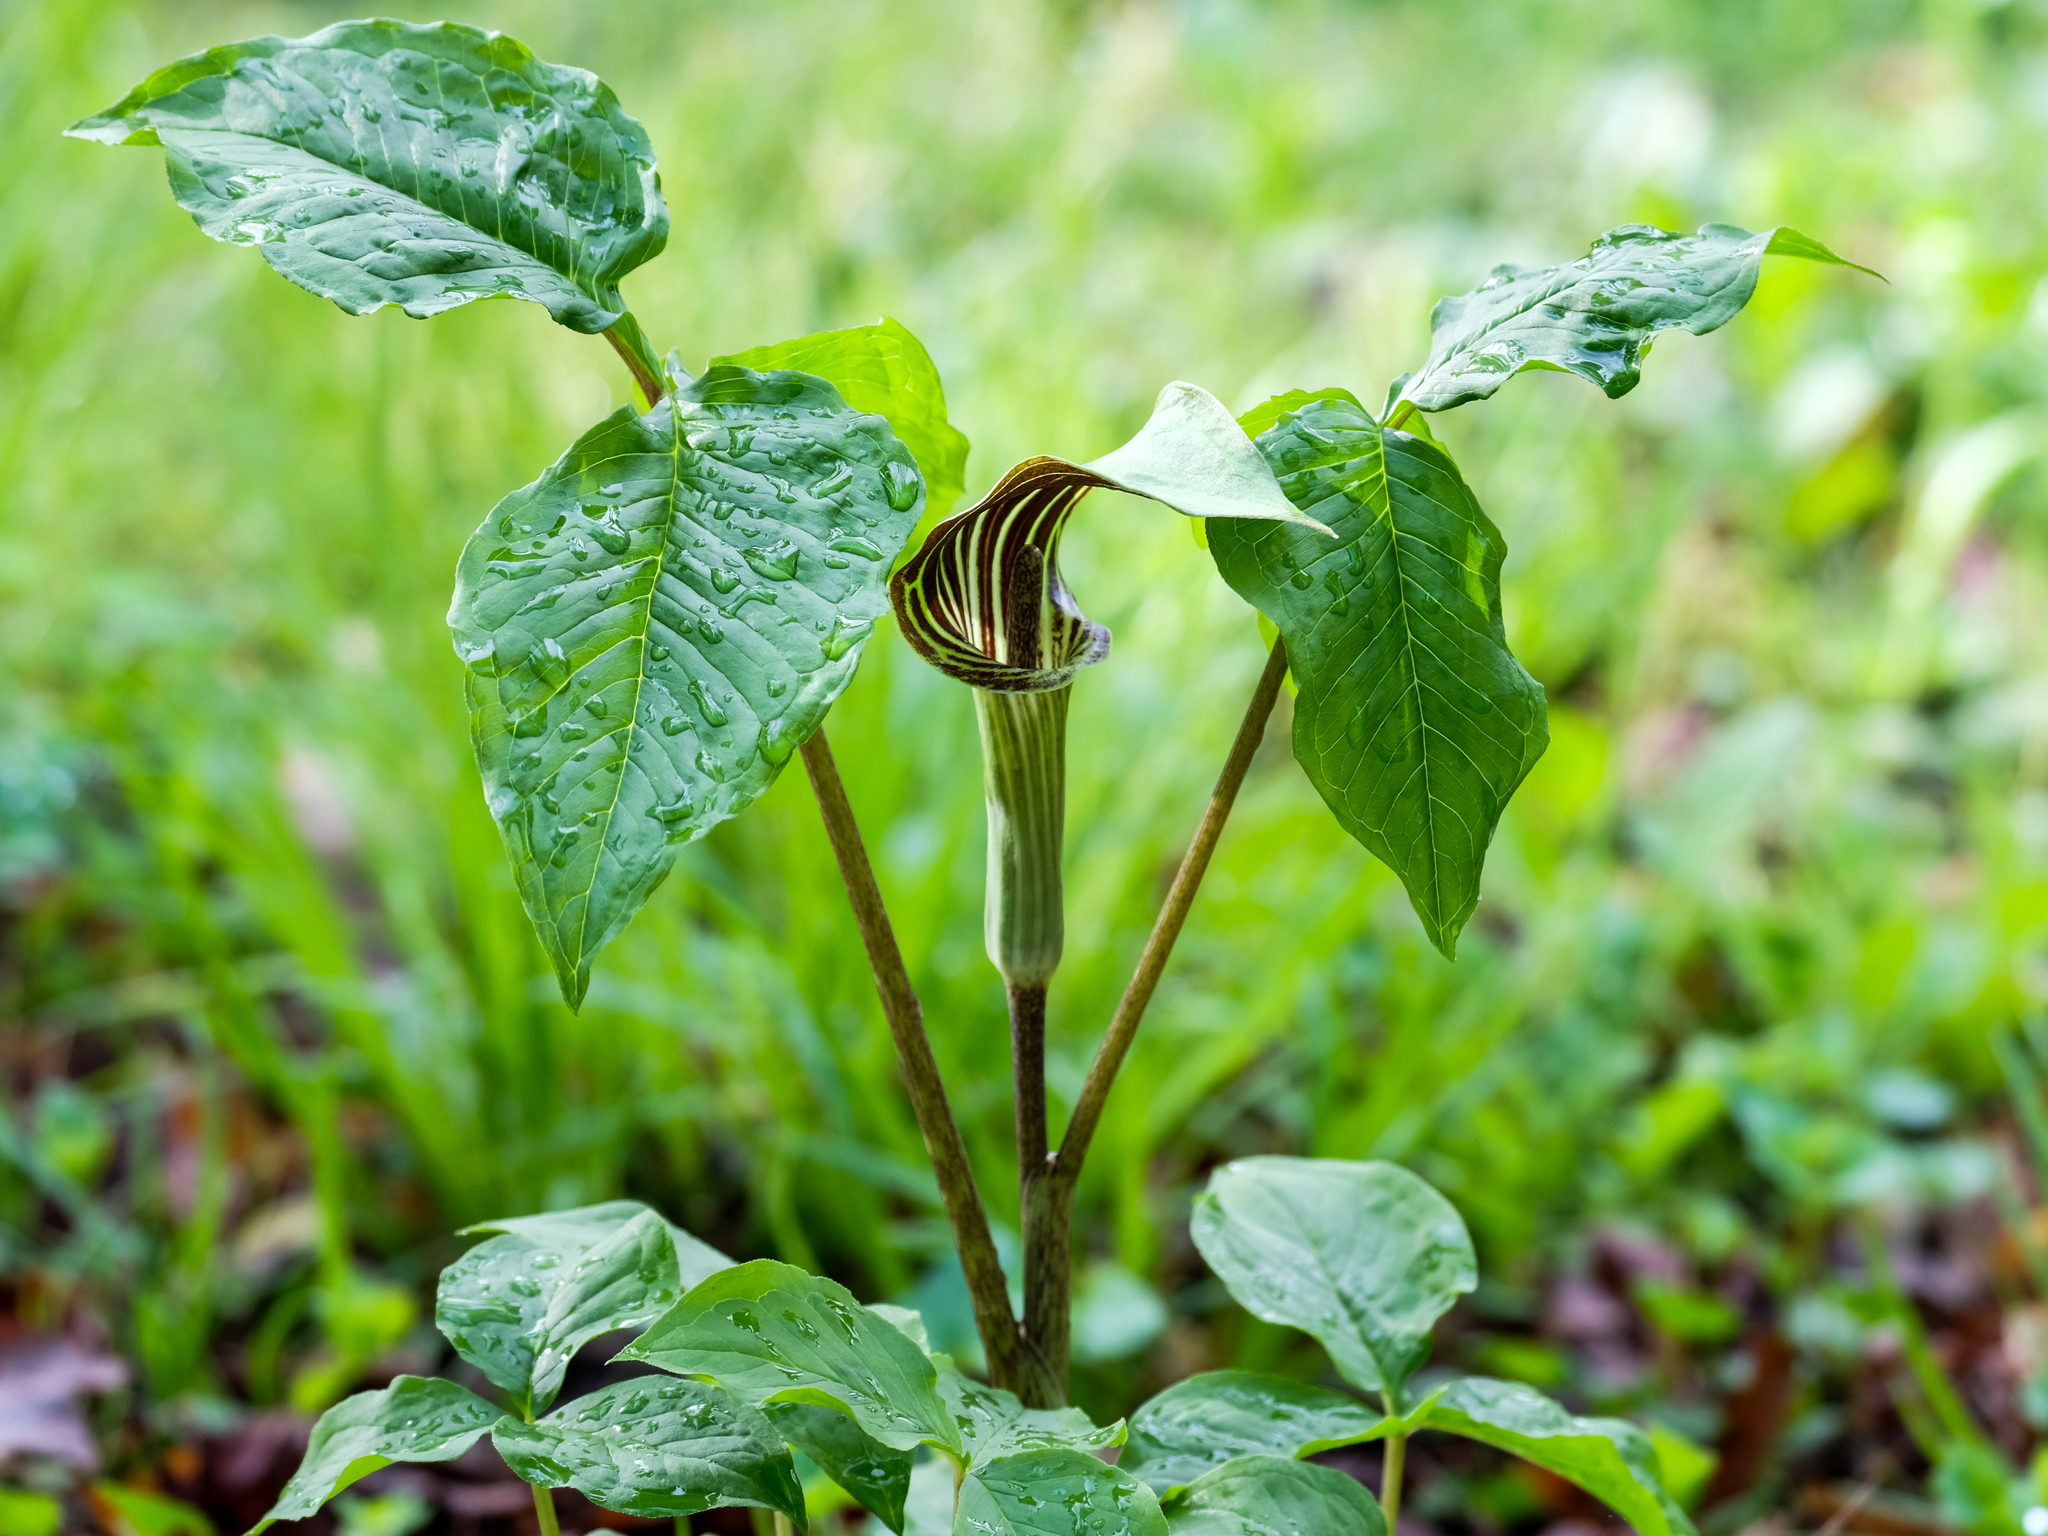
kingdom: Plantae
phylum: Tracheophyta
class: Liliopsida
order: Alismatales
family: Araceae
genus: Arisaema
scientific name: Arisaema triphyllum
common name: Jack-in-the-pulpit
